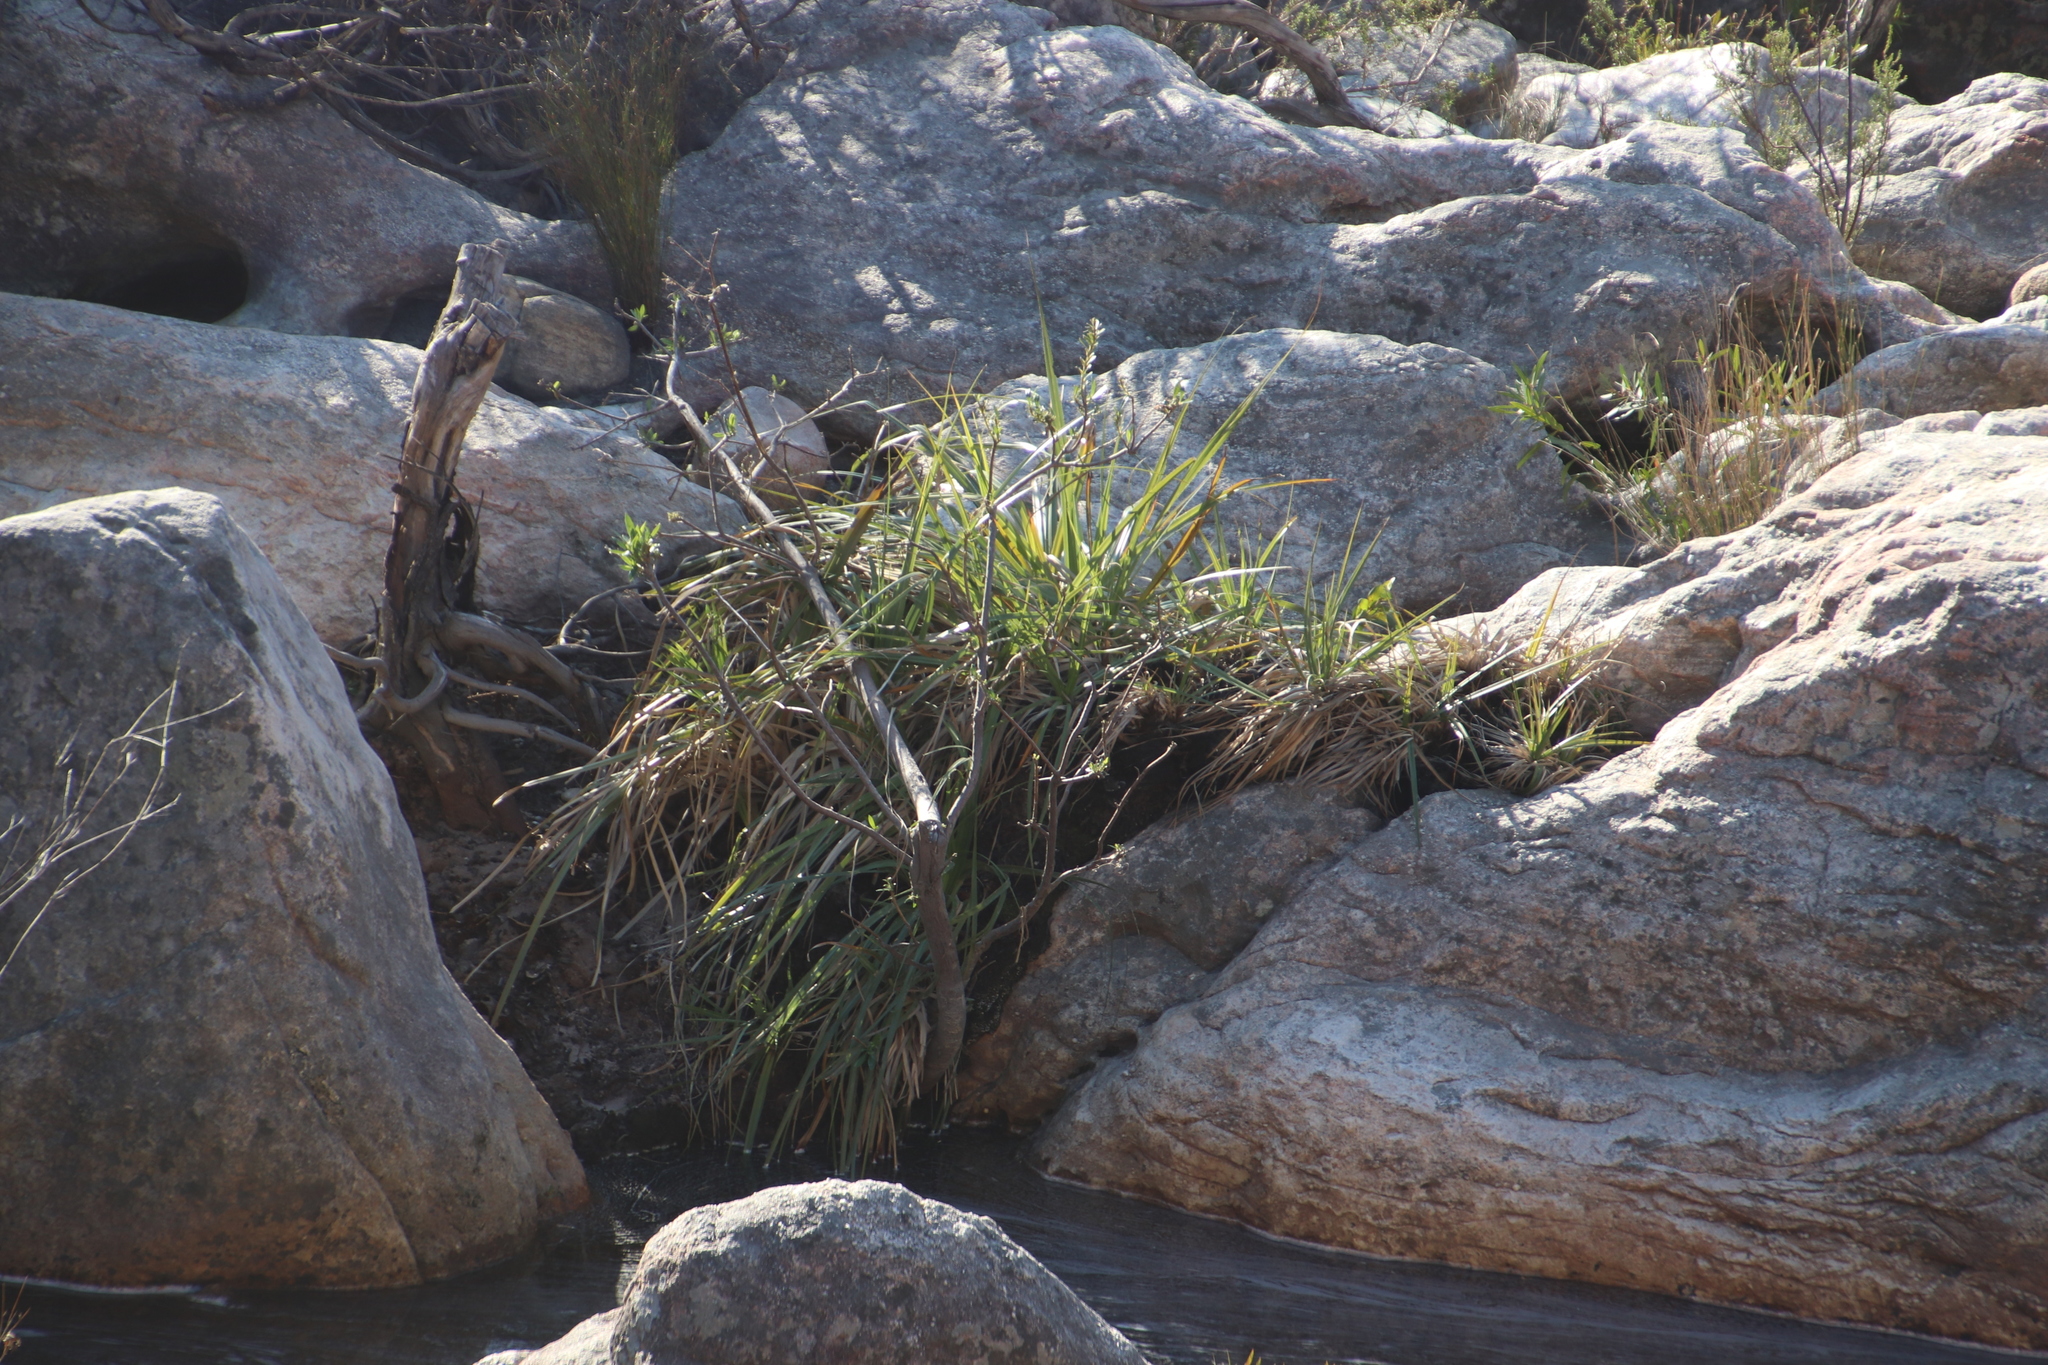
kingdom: Plantae
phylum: Tracheophyta
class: Liliopsida
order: Poales
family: Cyperaceae
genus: Carpha
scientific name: Carpha glomerata
